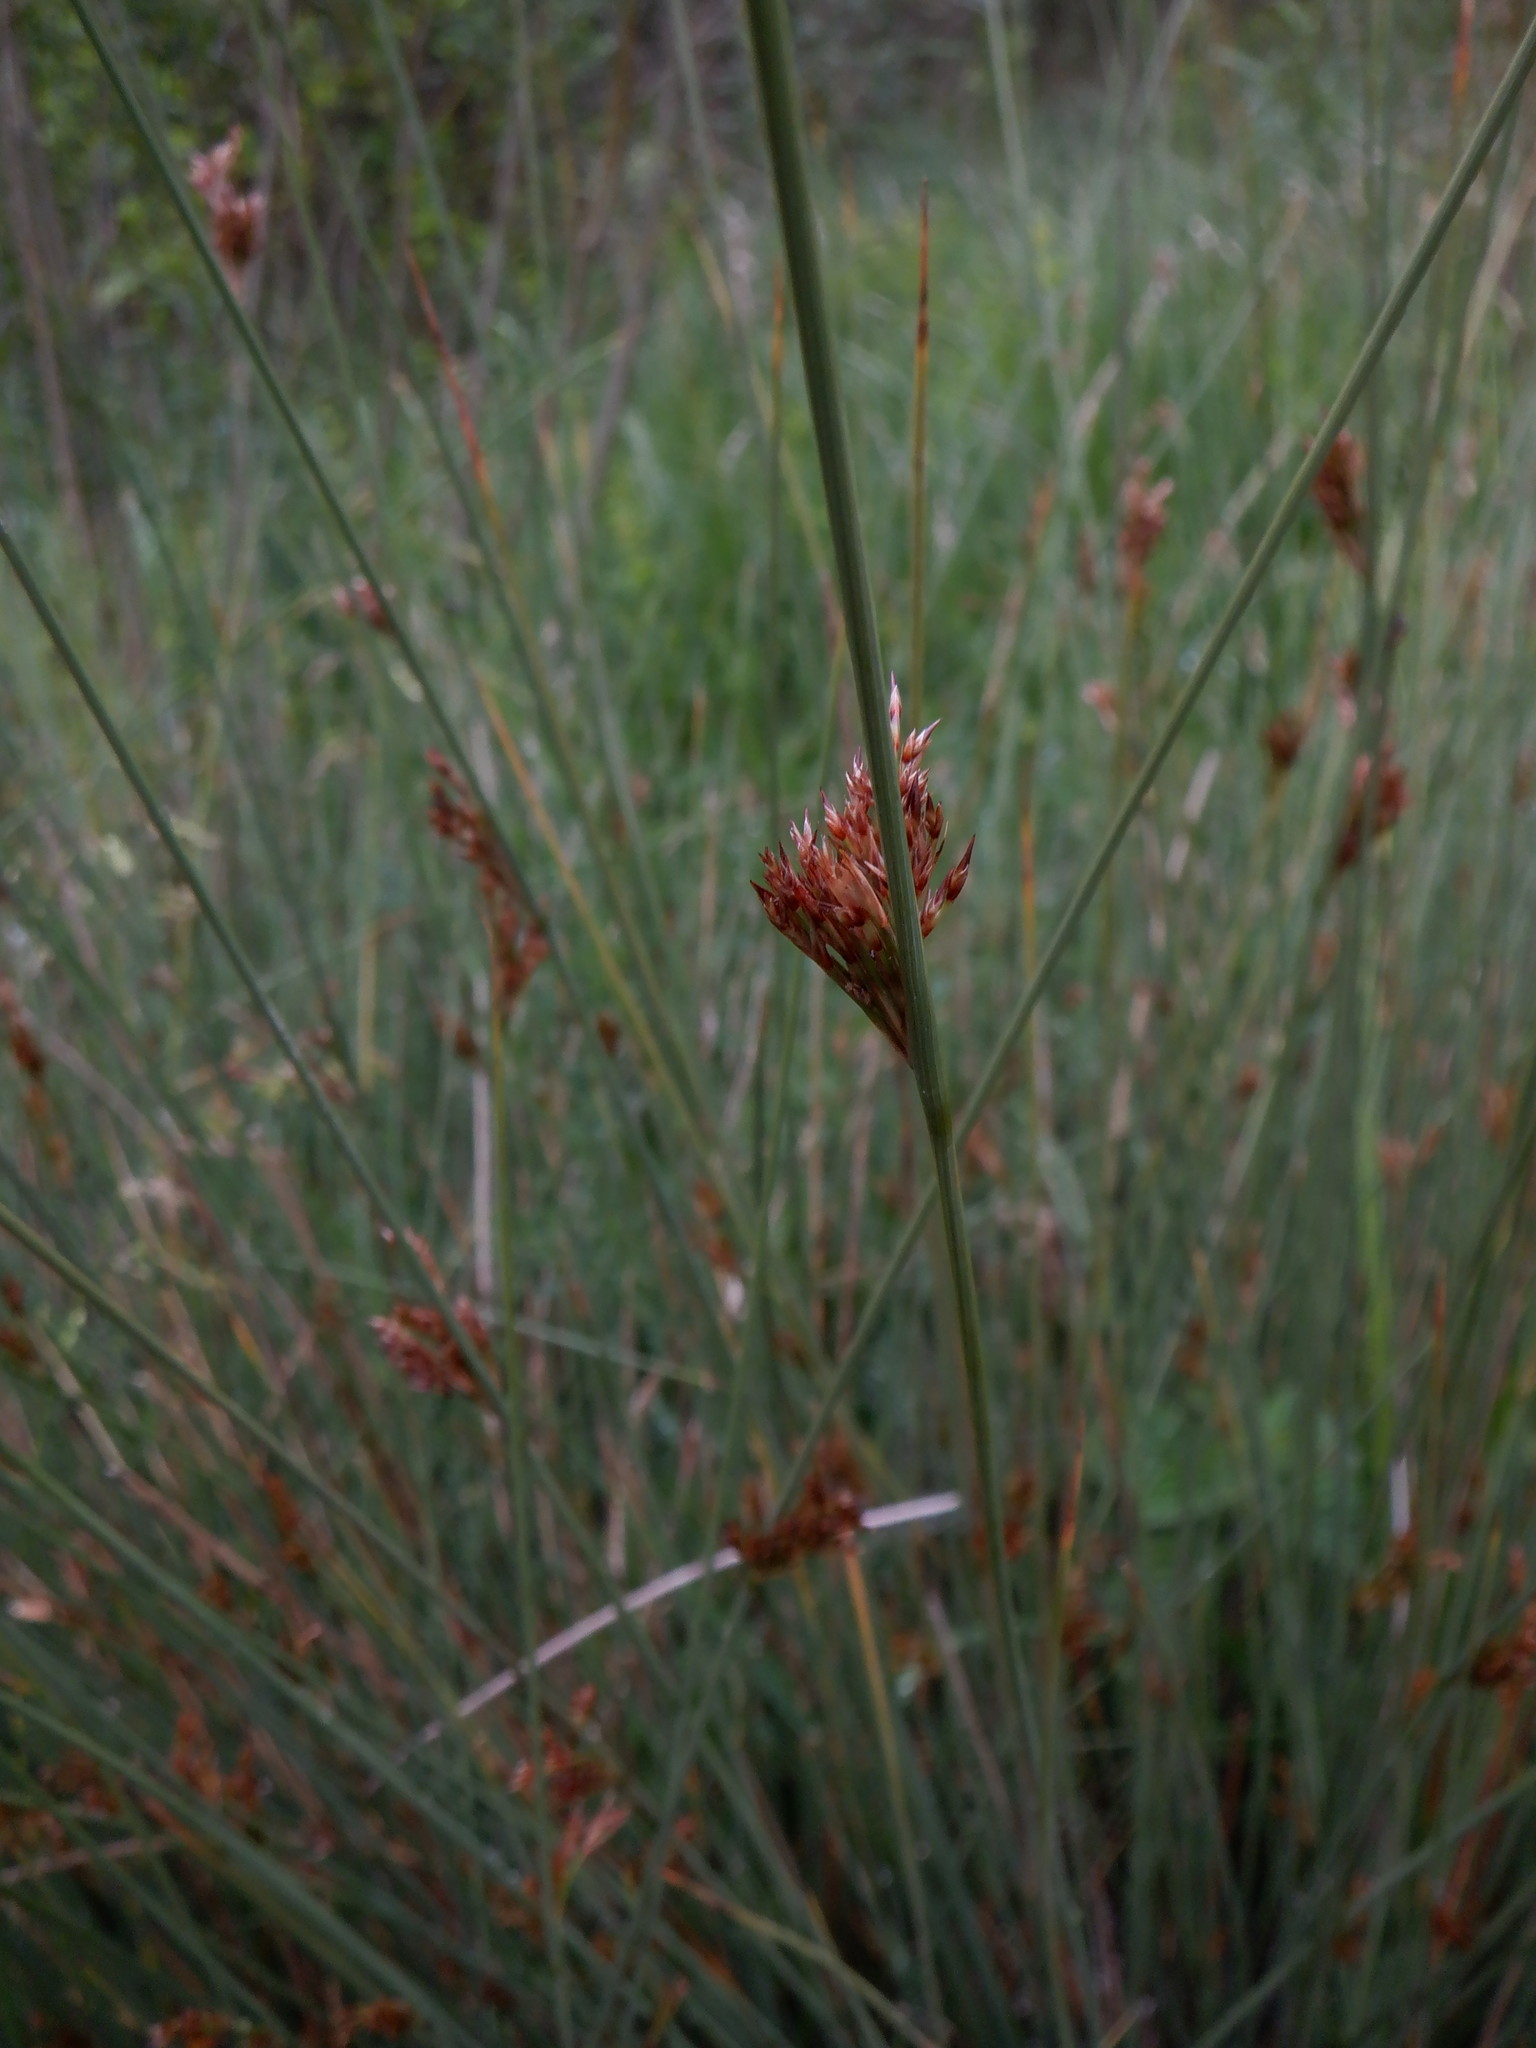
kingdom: Plantae
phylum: Tracheophyta
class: Liliopsida
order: Poales
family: Juncaceae
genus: Juncus
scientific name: Juncus inflexus
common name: Hard rush
